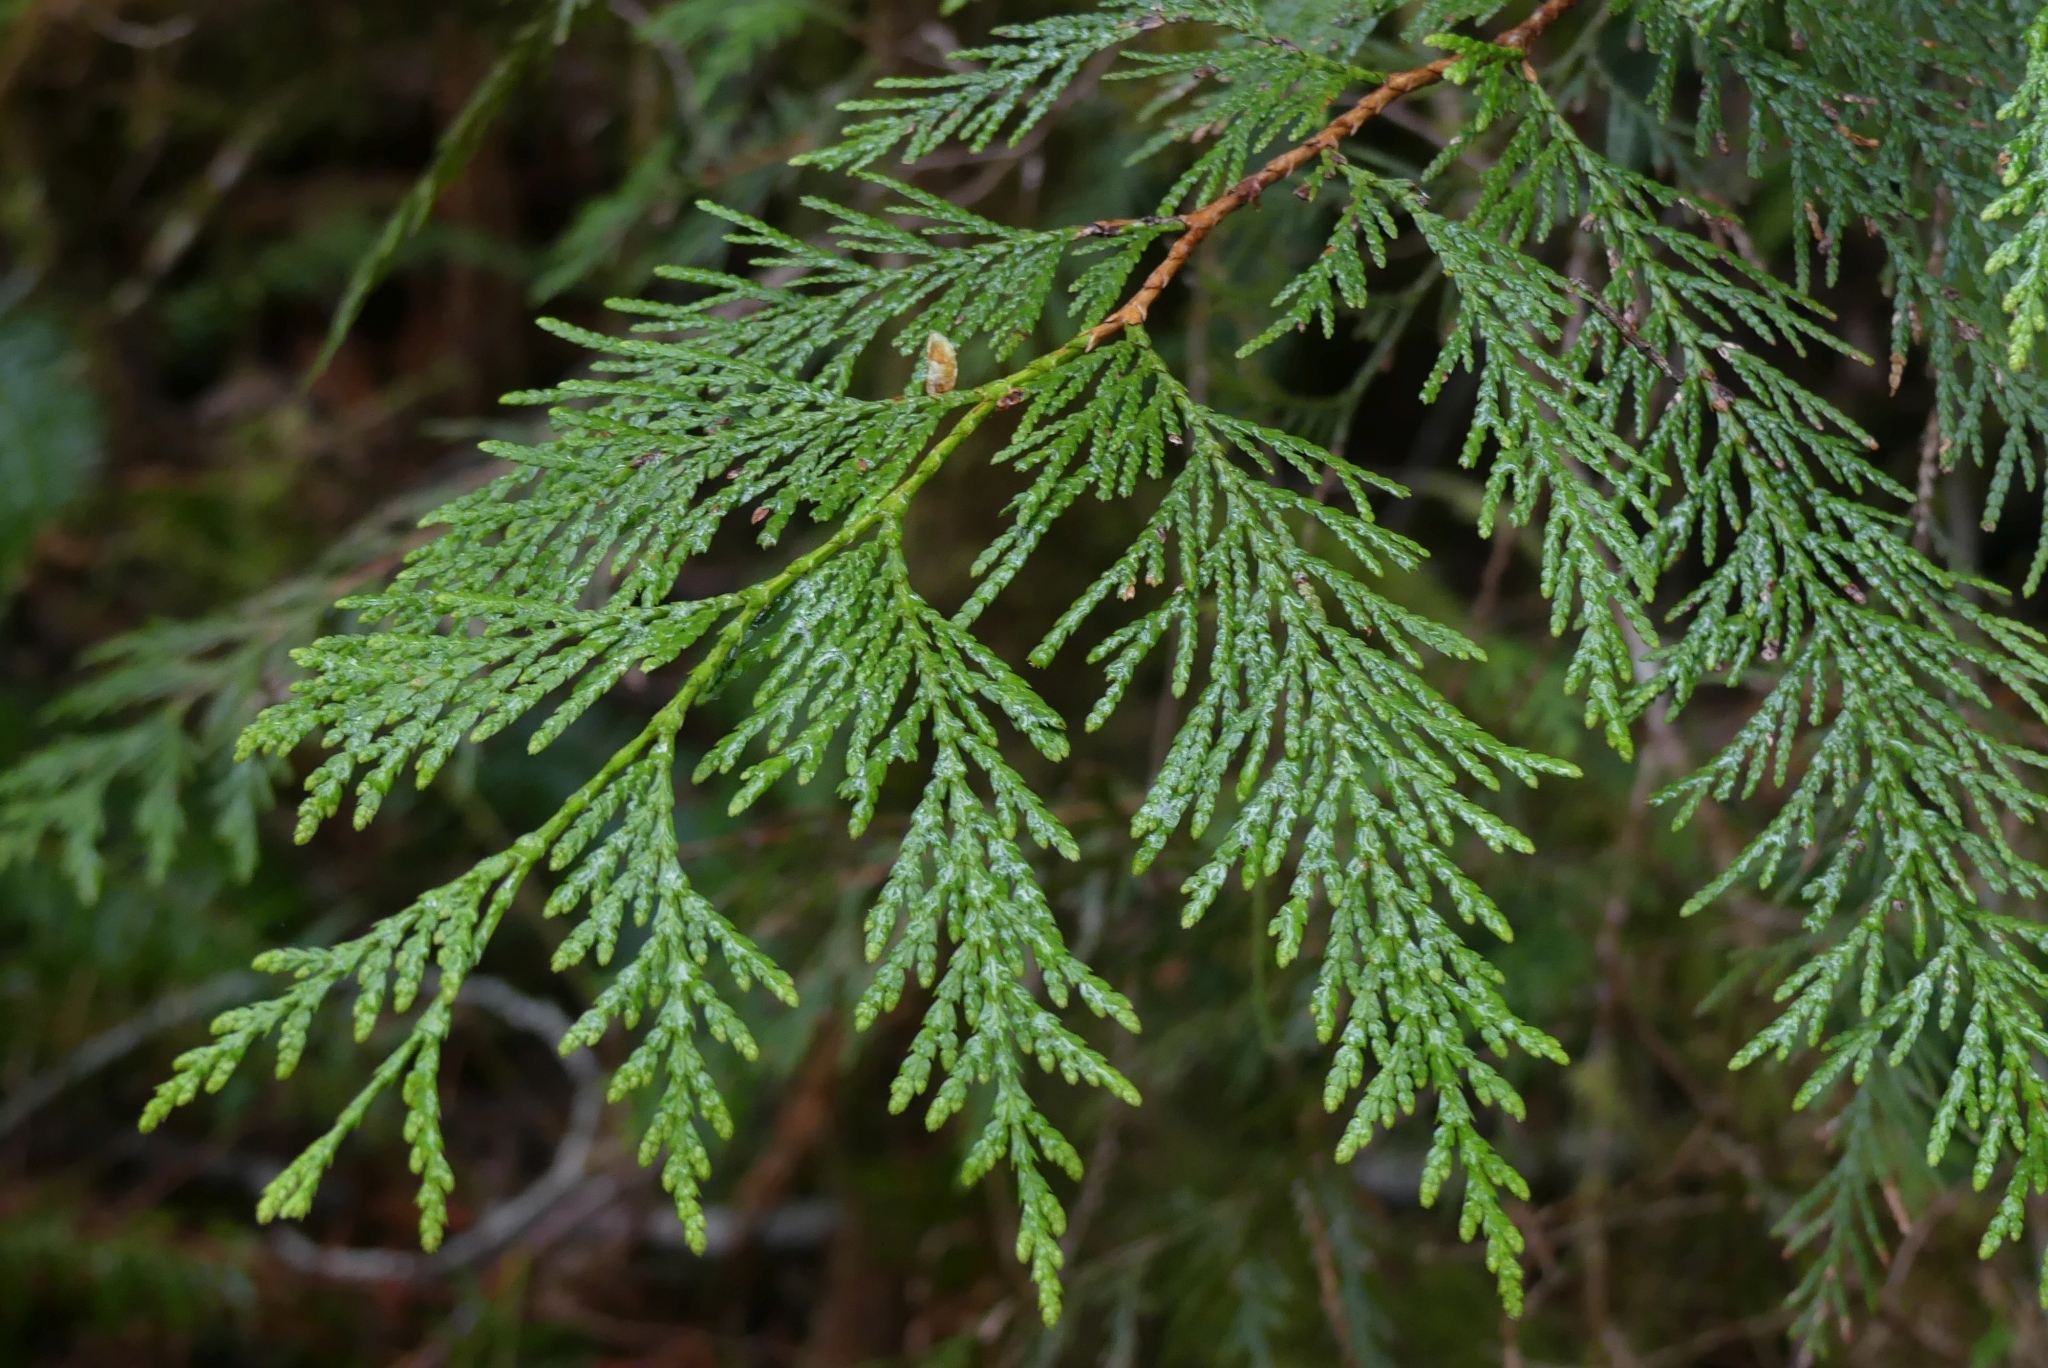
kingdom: Plantae
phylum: Tracheophyta
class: Pinopsida
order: Pinales
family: Cupressaceae
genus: Thuja
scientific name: Thuja plicata
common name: Western red-cedar
